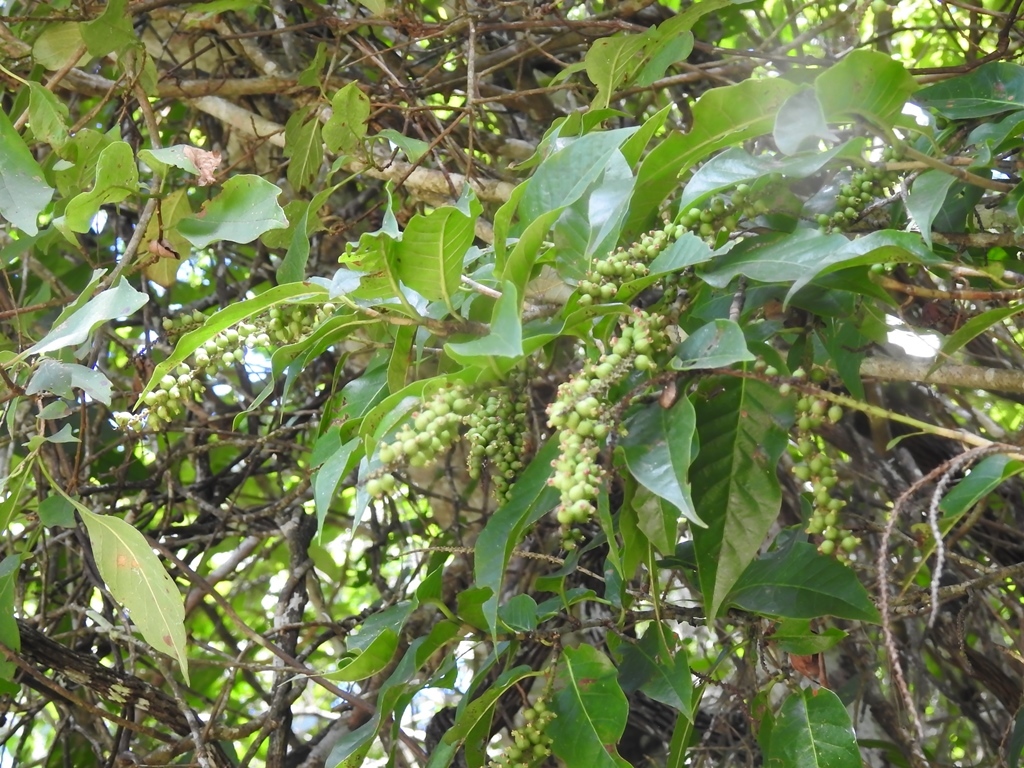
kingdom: Plantae
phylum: Tracheophyta
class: Magnoliopsida
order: Caryophyllales
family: Polygonaceae
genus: Coccoloba
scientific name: Coccoloba floresii
